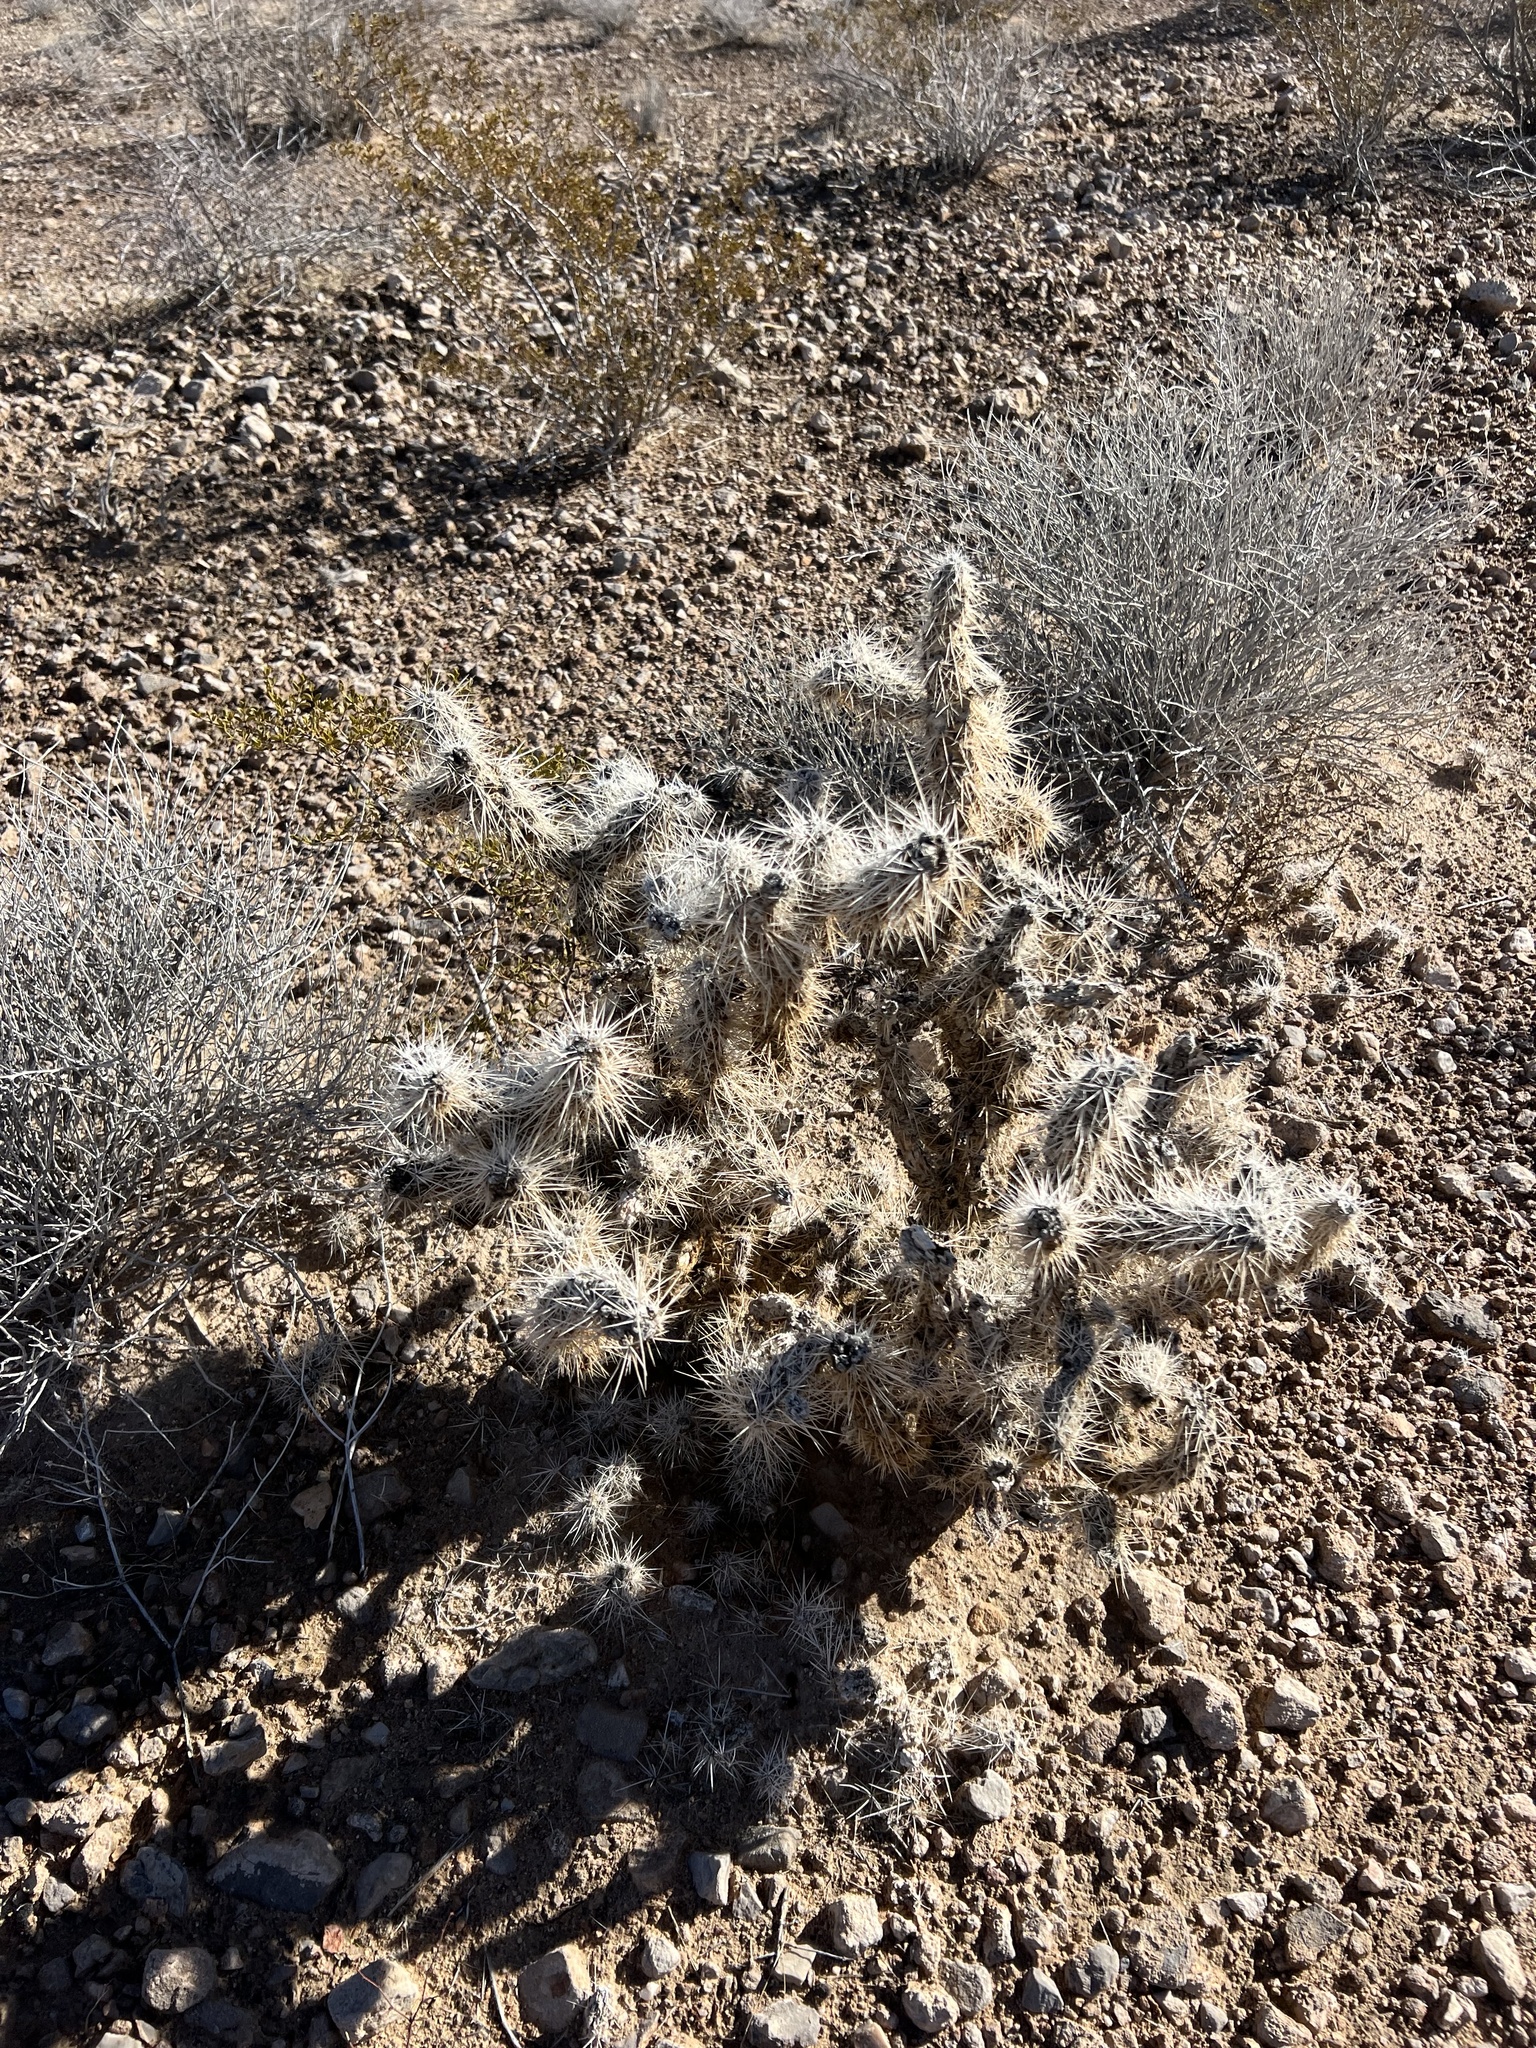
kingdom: Plantae
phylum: Tracheophyta
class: Magnoliopsida
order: Caryophyllales
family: Cactaceae
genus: Cylindropuntia
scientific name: Cylindropuntia echinocarpa
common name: Ground cholla
